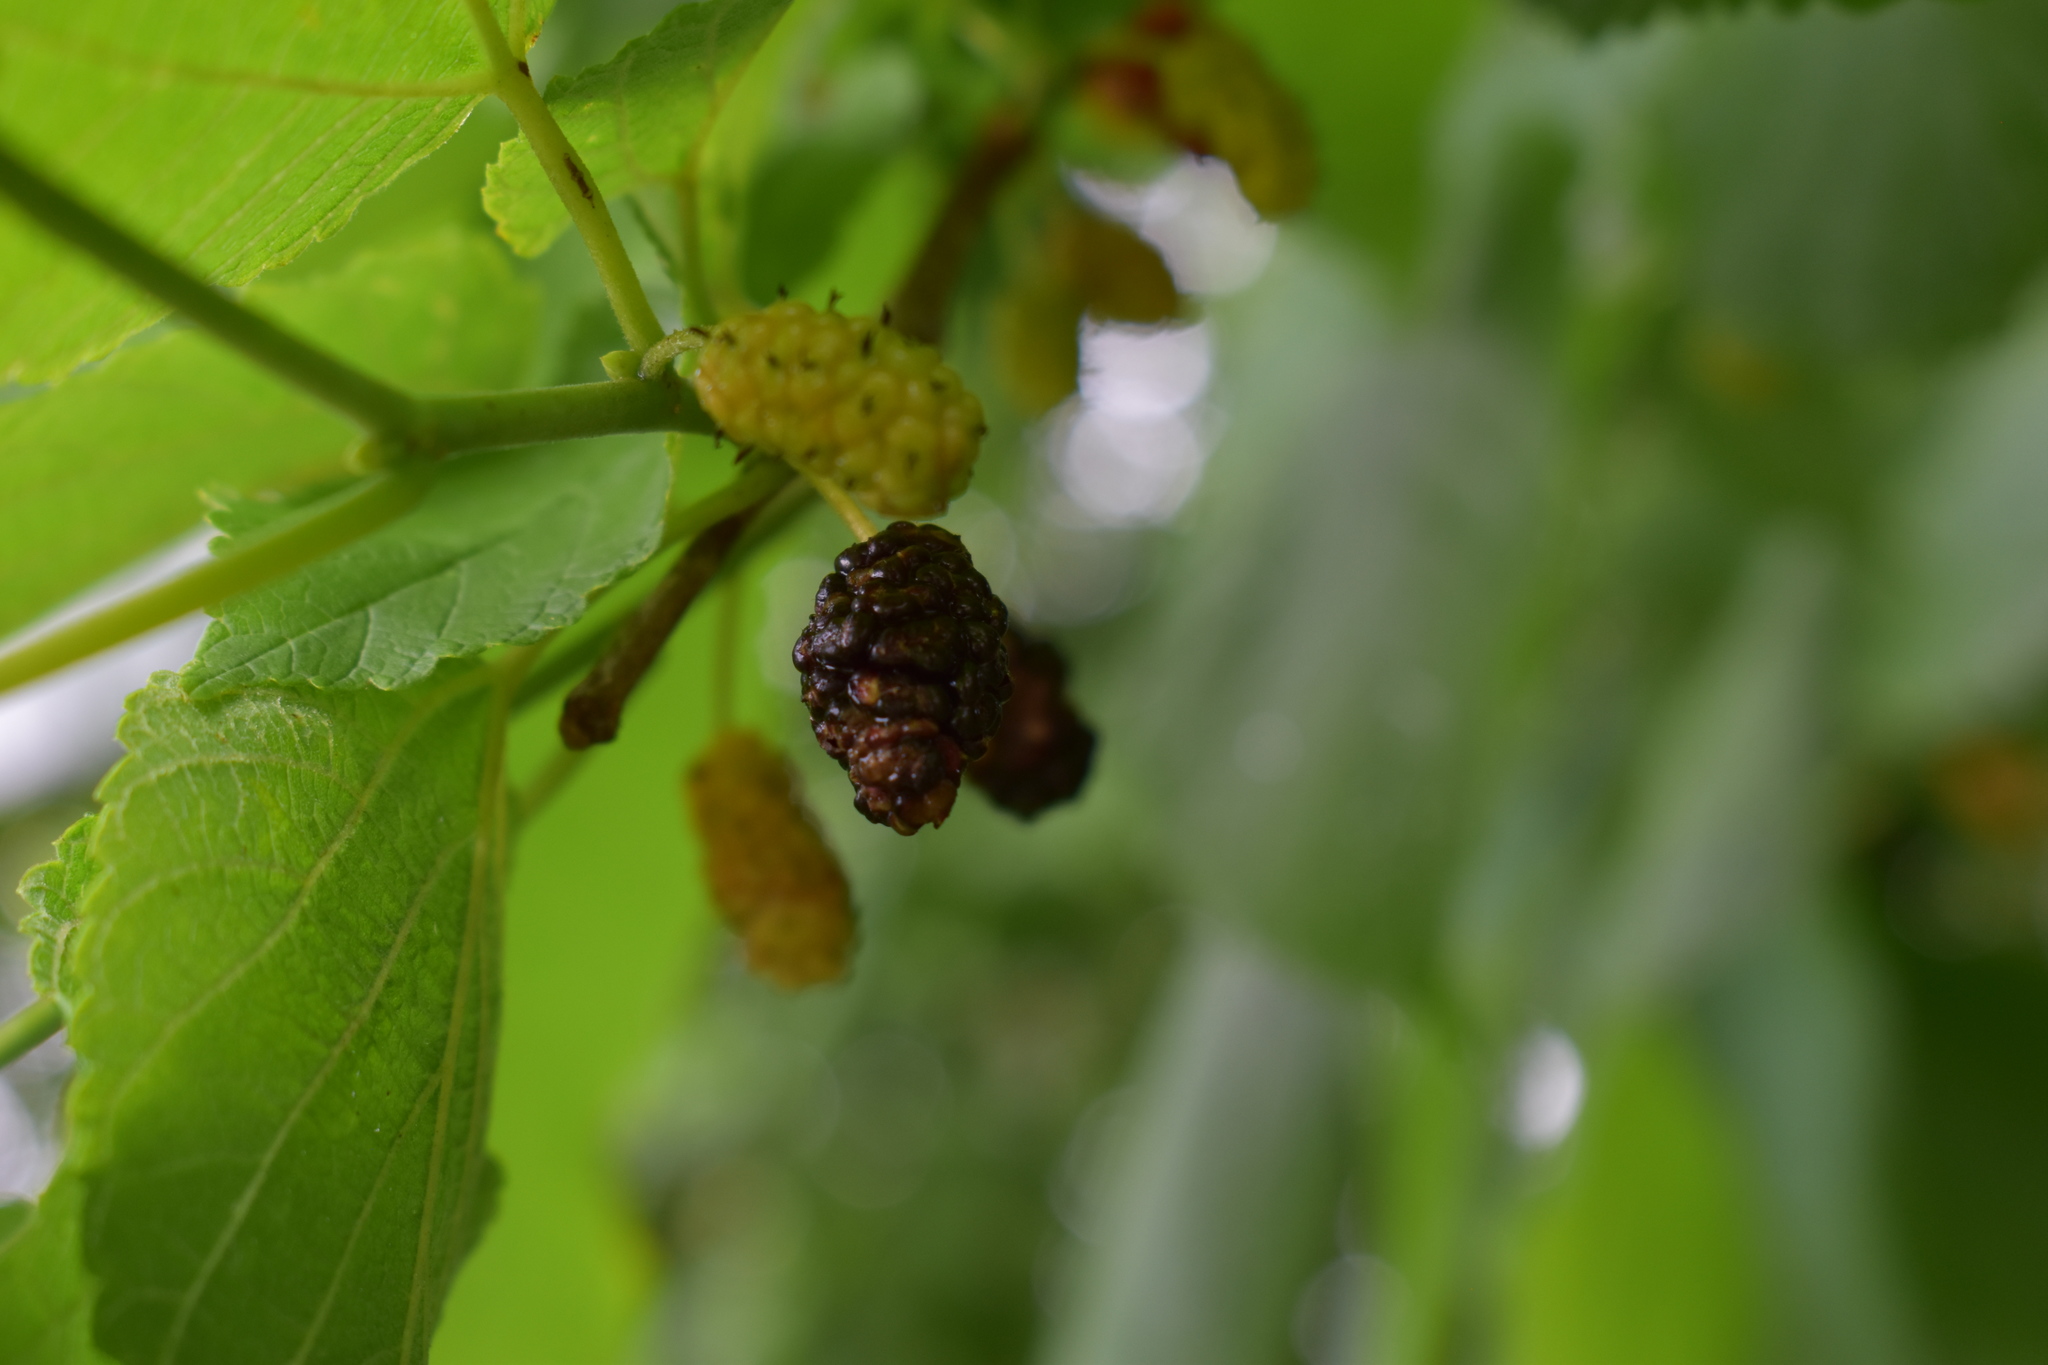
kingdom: Plantae
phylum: Tracheophyta
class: Magnoliopsida
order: Rosales
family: Moraceae
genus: Morus
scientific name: Morus rubra
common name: Red mulberry
